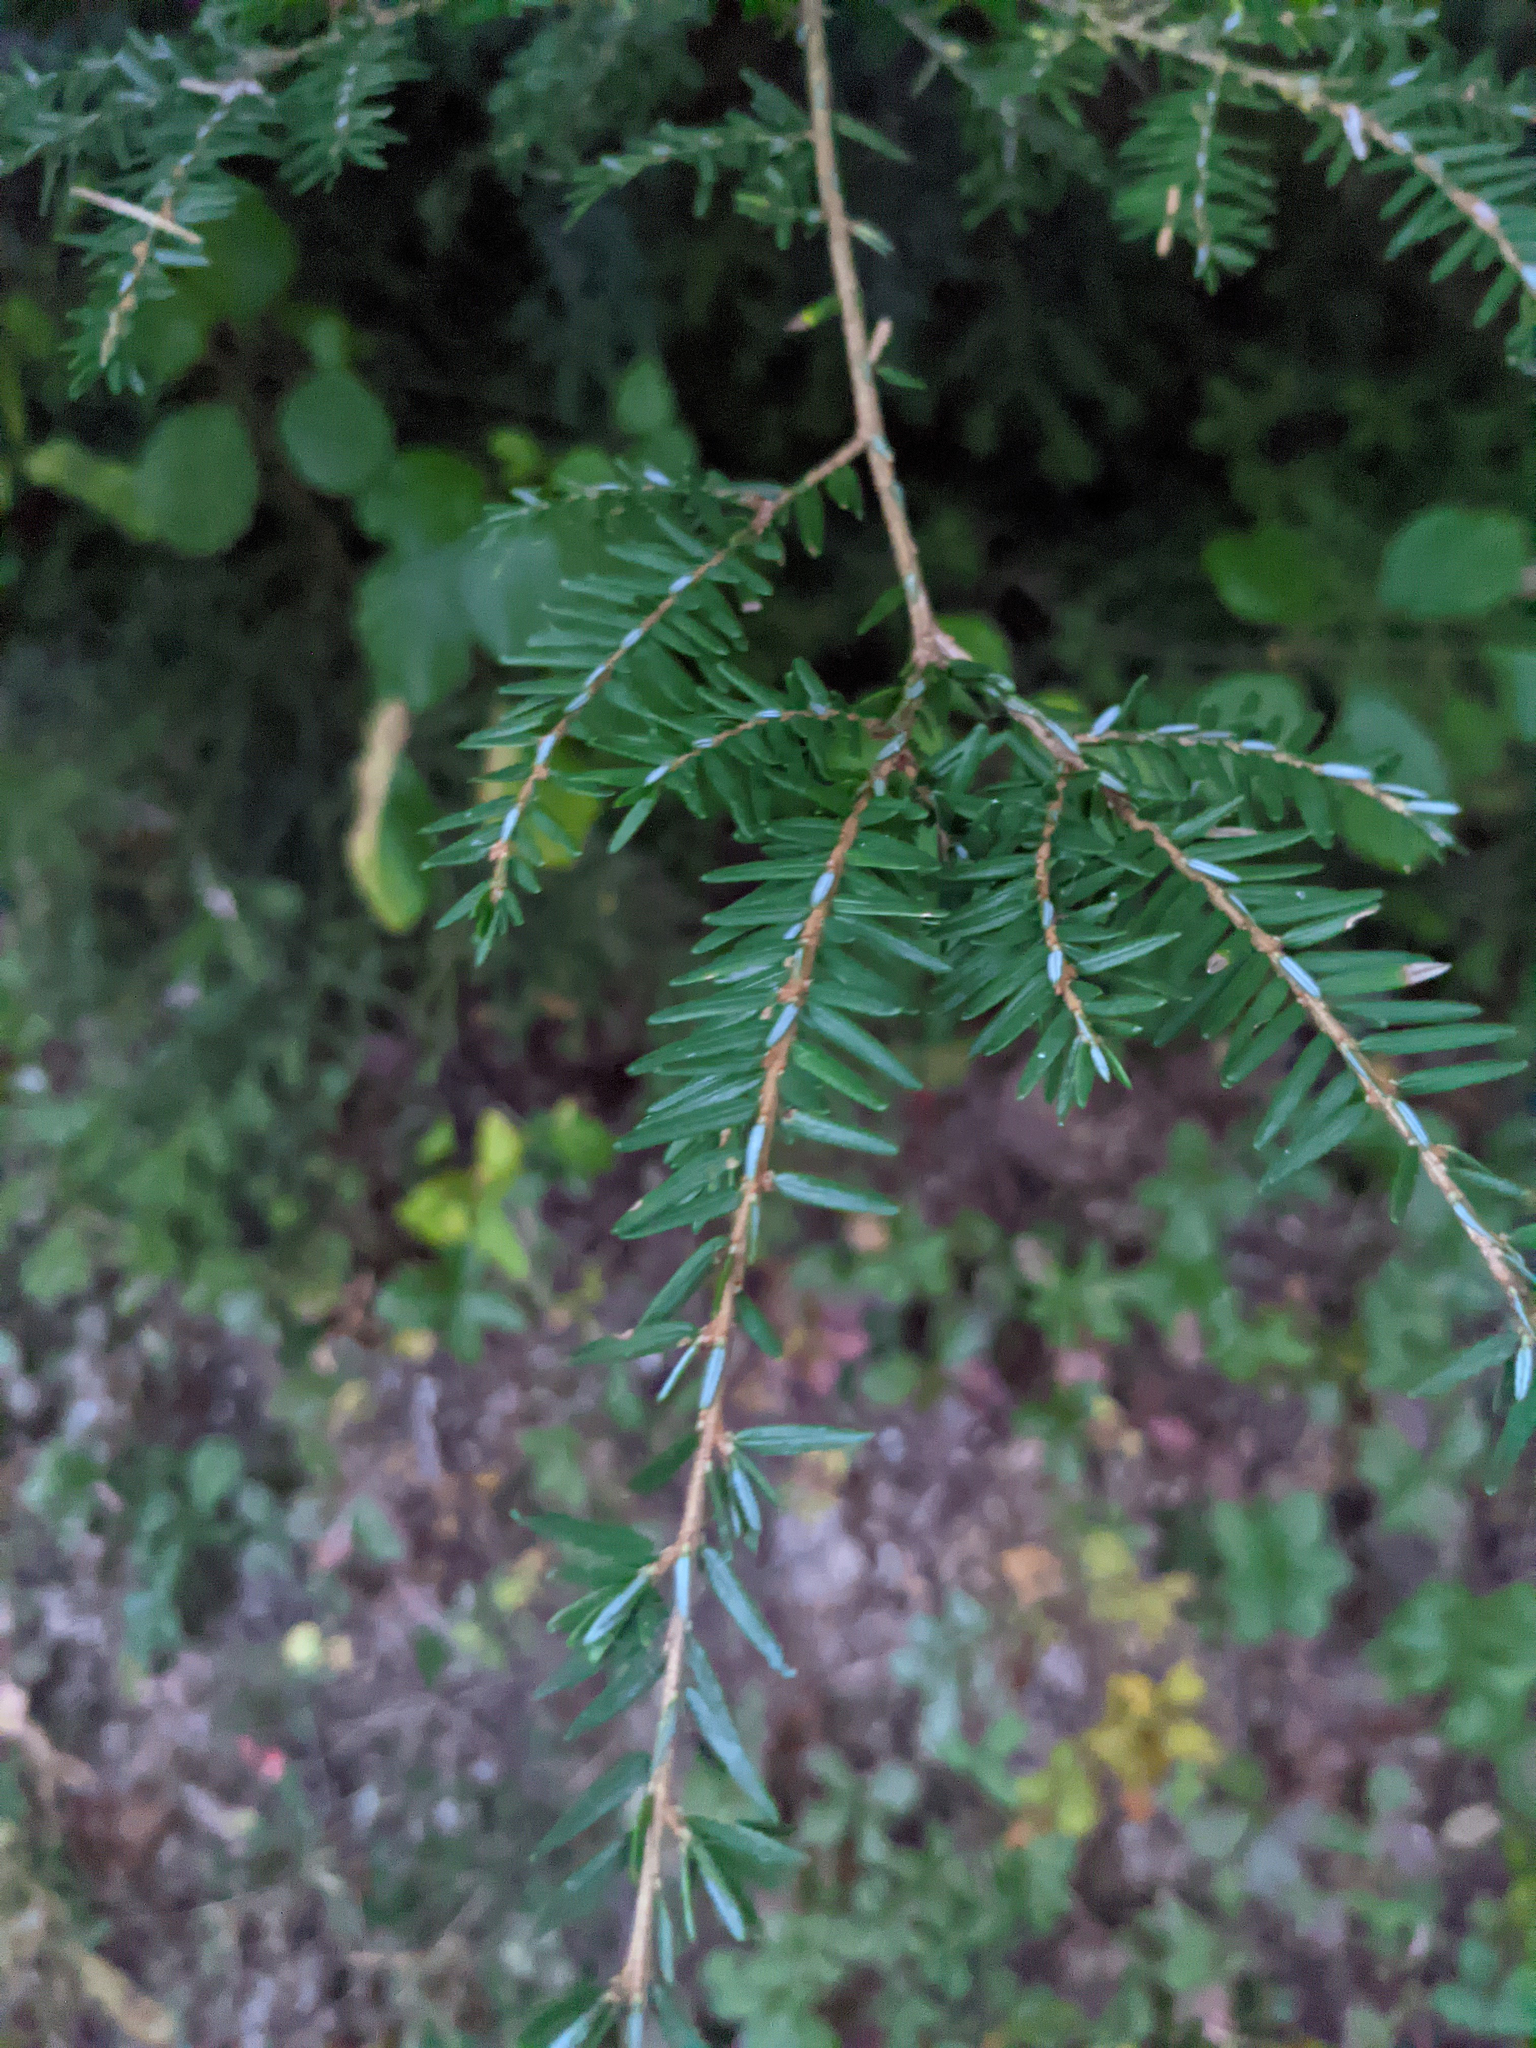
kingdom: Plantae
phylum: Tracheophyta
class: Pinopsida
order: Pinales
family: Pinaceae
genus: Tsuga
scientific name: Tsuga canadensis
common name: Eastern hemlock
